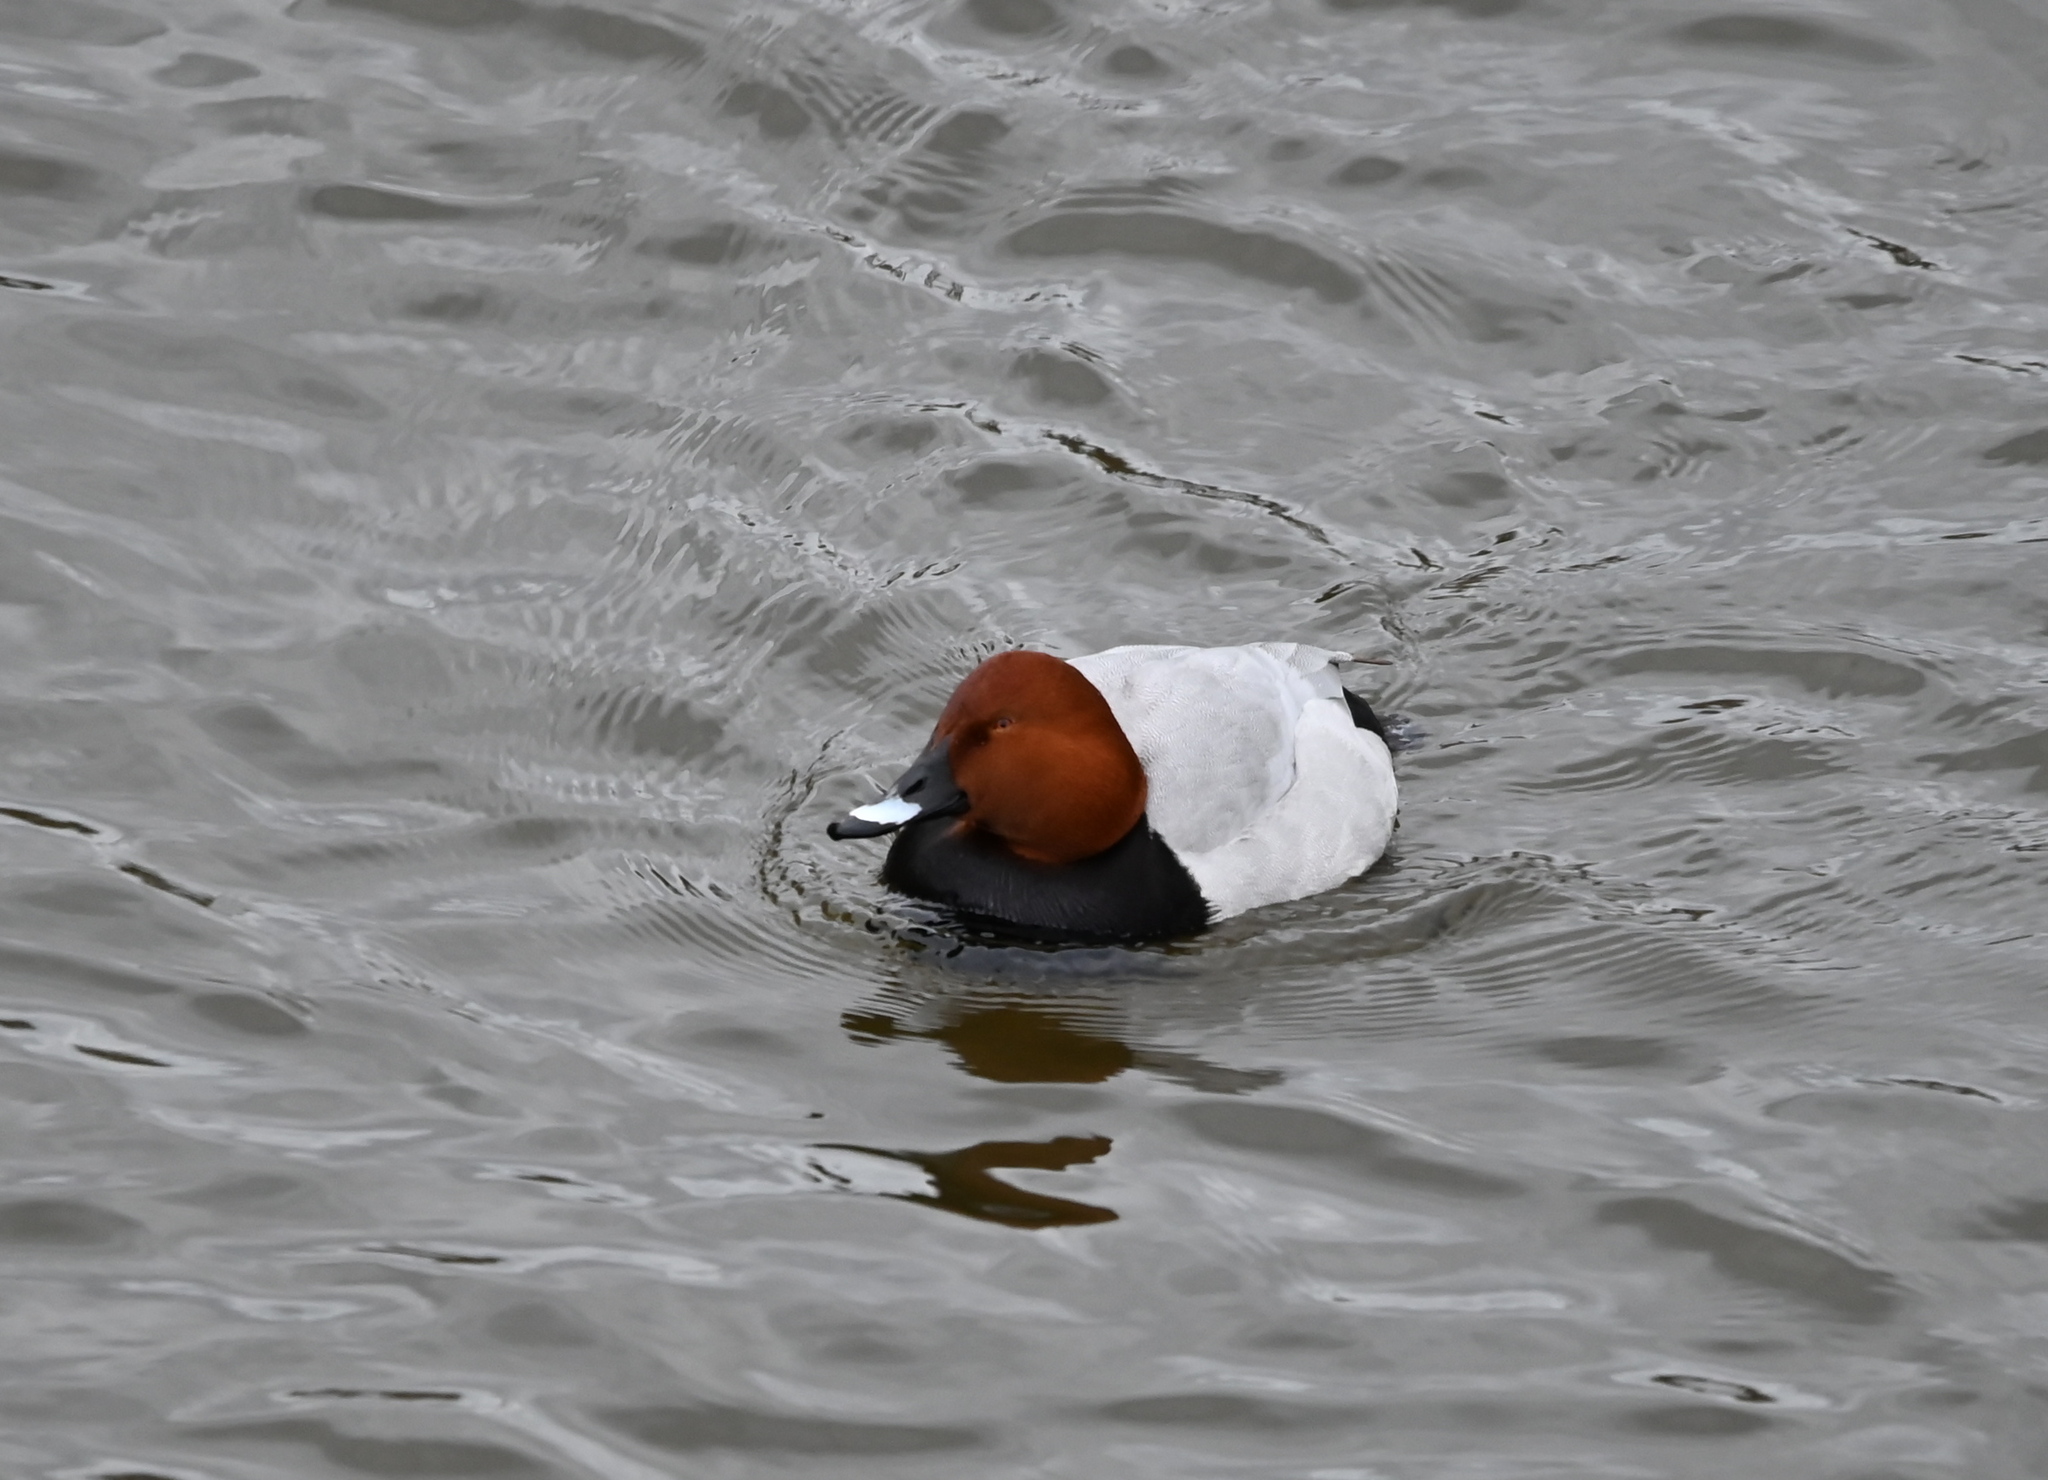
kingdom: Animalia
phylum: Chordata
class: Aves
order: Anseriformes
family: Anatidae
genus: Aythya
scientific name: Aythya ferina
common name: Common pochard
